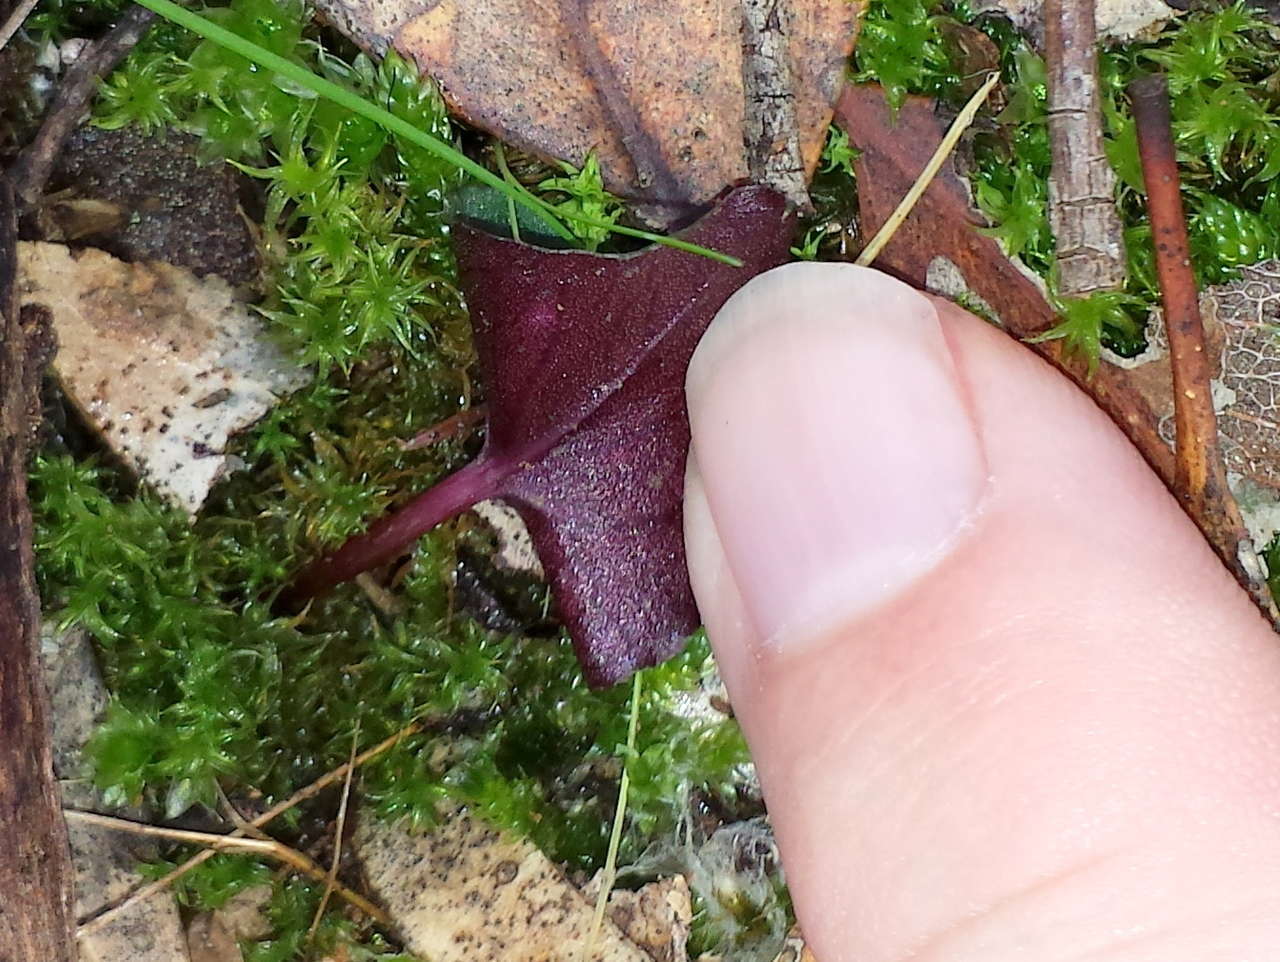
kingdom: Plantae
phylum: Tracheophyta
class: Liliopsida
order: Asparagales
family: Orchidaceae
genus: Acianthus
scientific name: Acianthus pusillus
